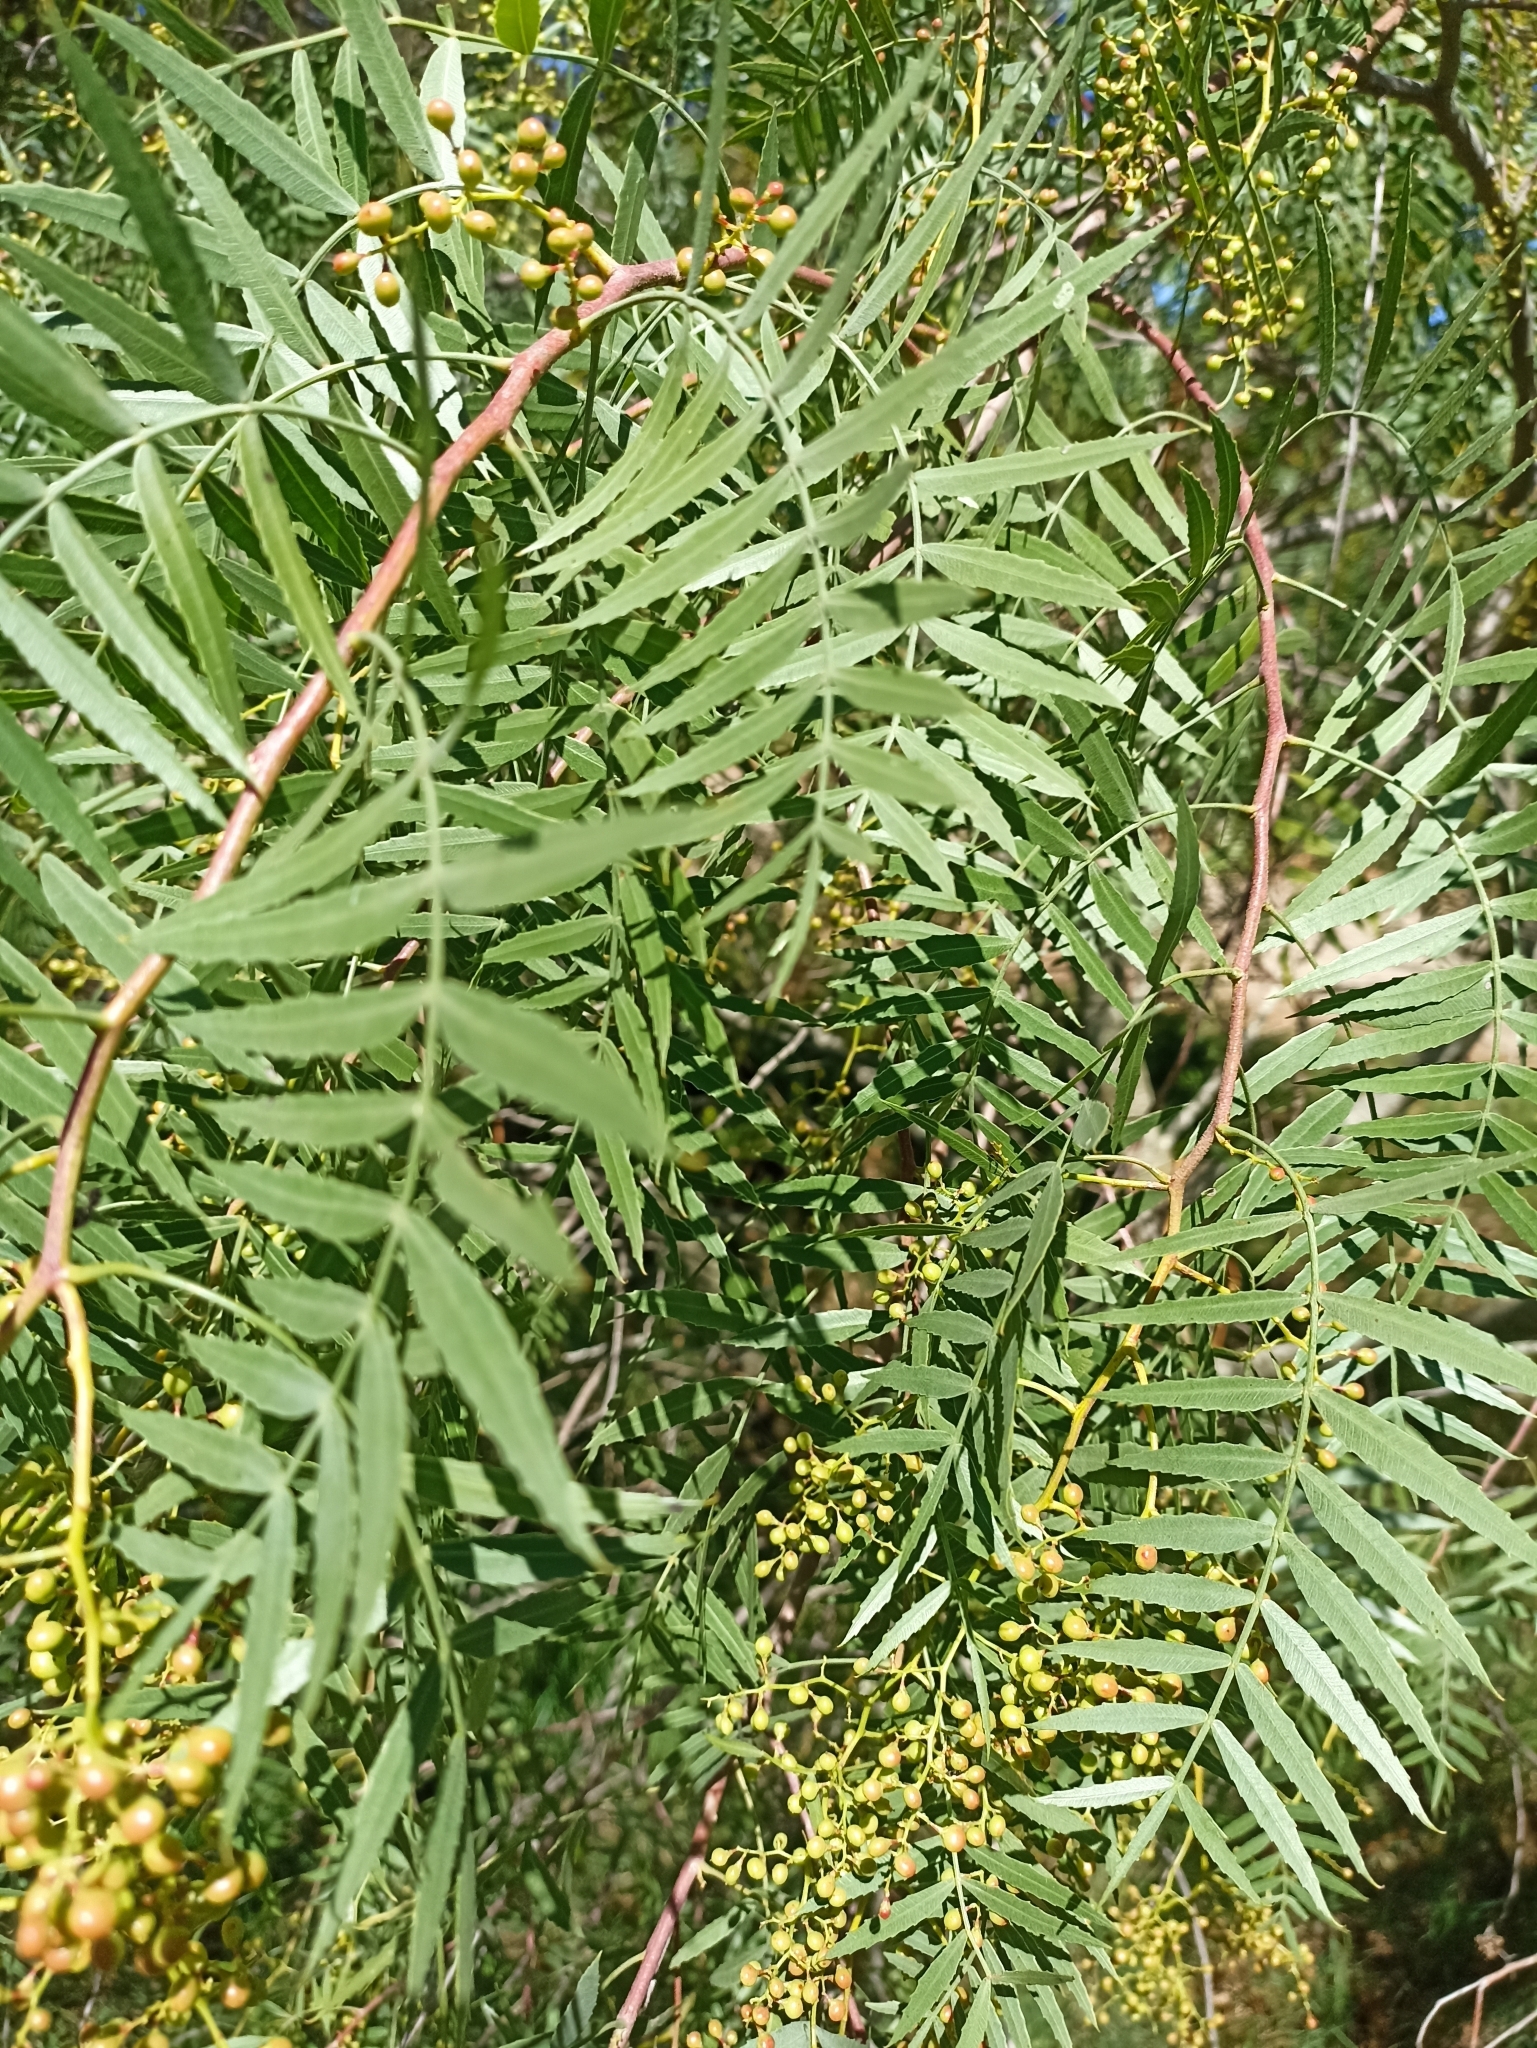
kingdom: Plantae
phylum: Tracheophyta
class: Magnoliopsida
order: Sapindales
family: Anacardiaceae
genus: Schinus
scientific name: Schinus molle
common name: Peruvian peppertree
